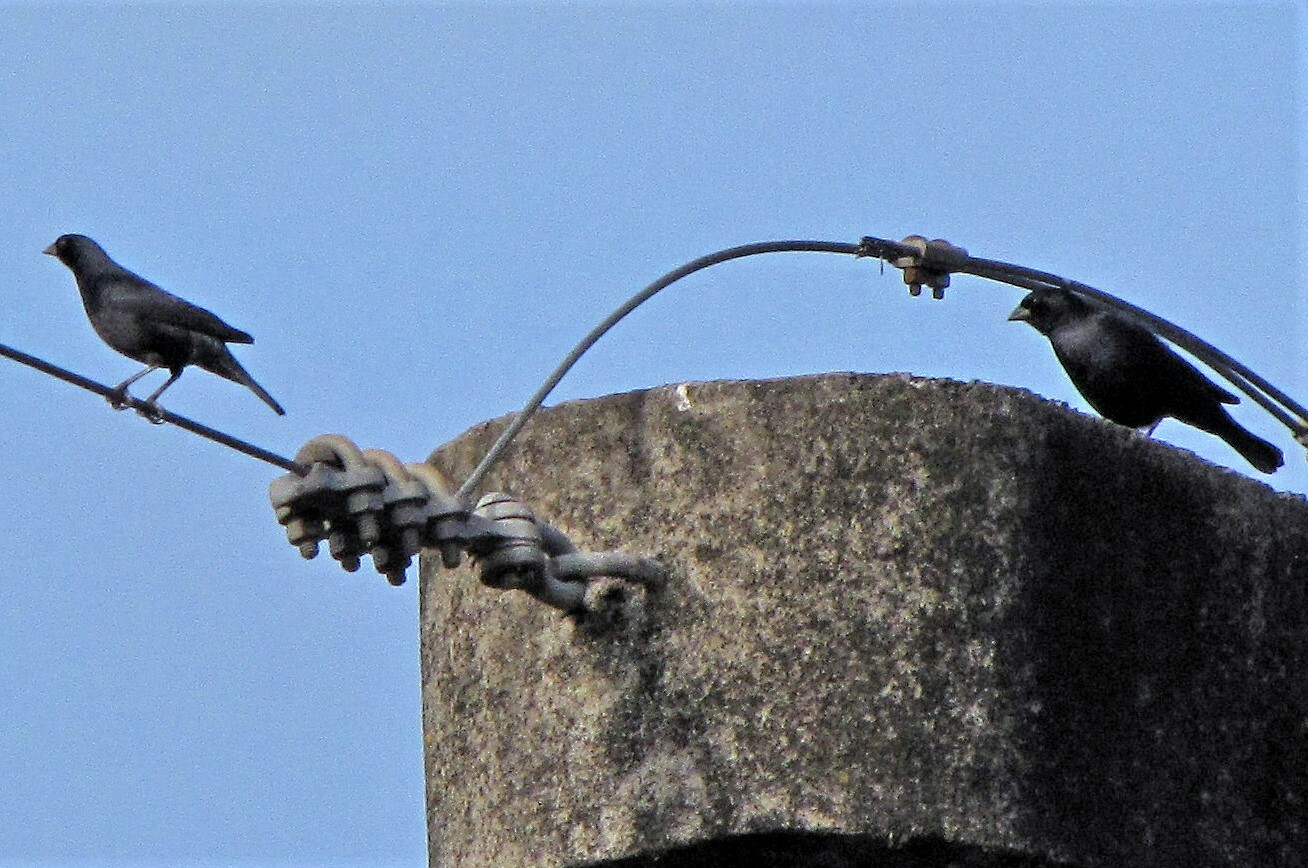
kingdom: Animalia
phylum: Chordata
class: Aves
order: Passeriformes
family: Icteridae
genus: Molothrus
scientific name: Molothrus rufoaxillaris
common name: Screaming cowbird
